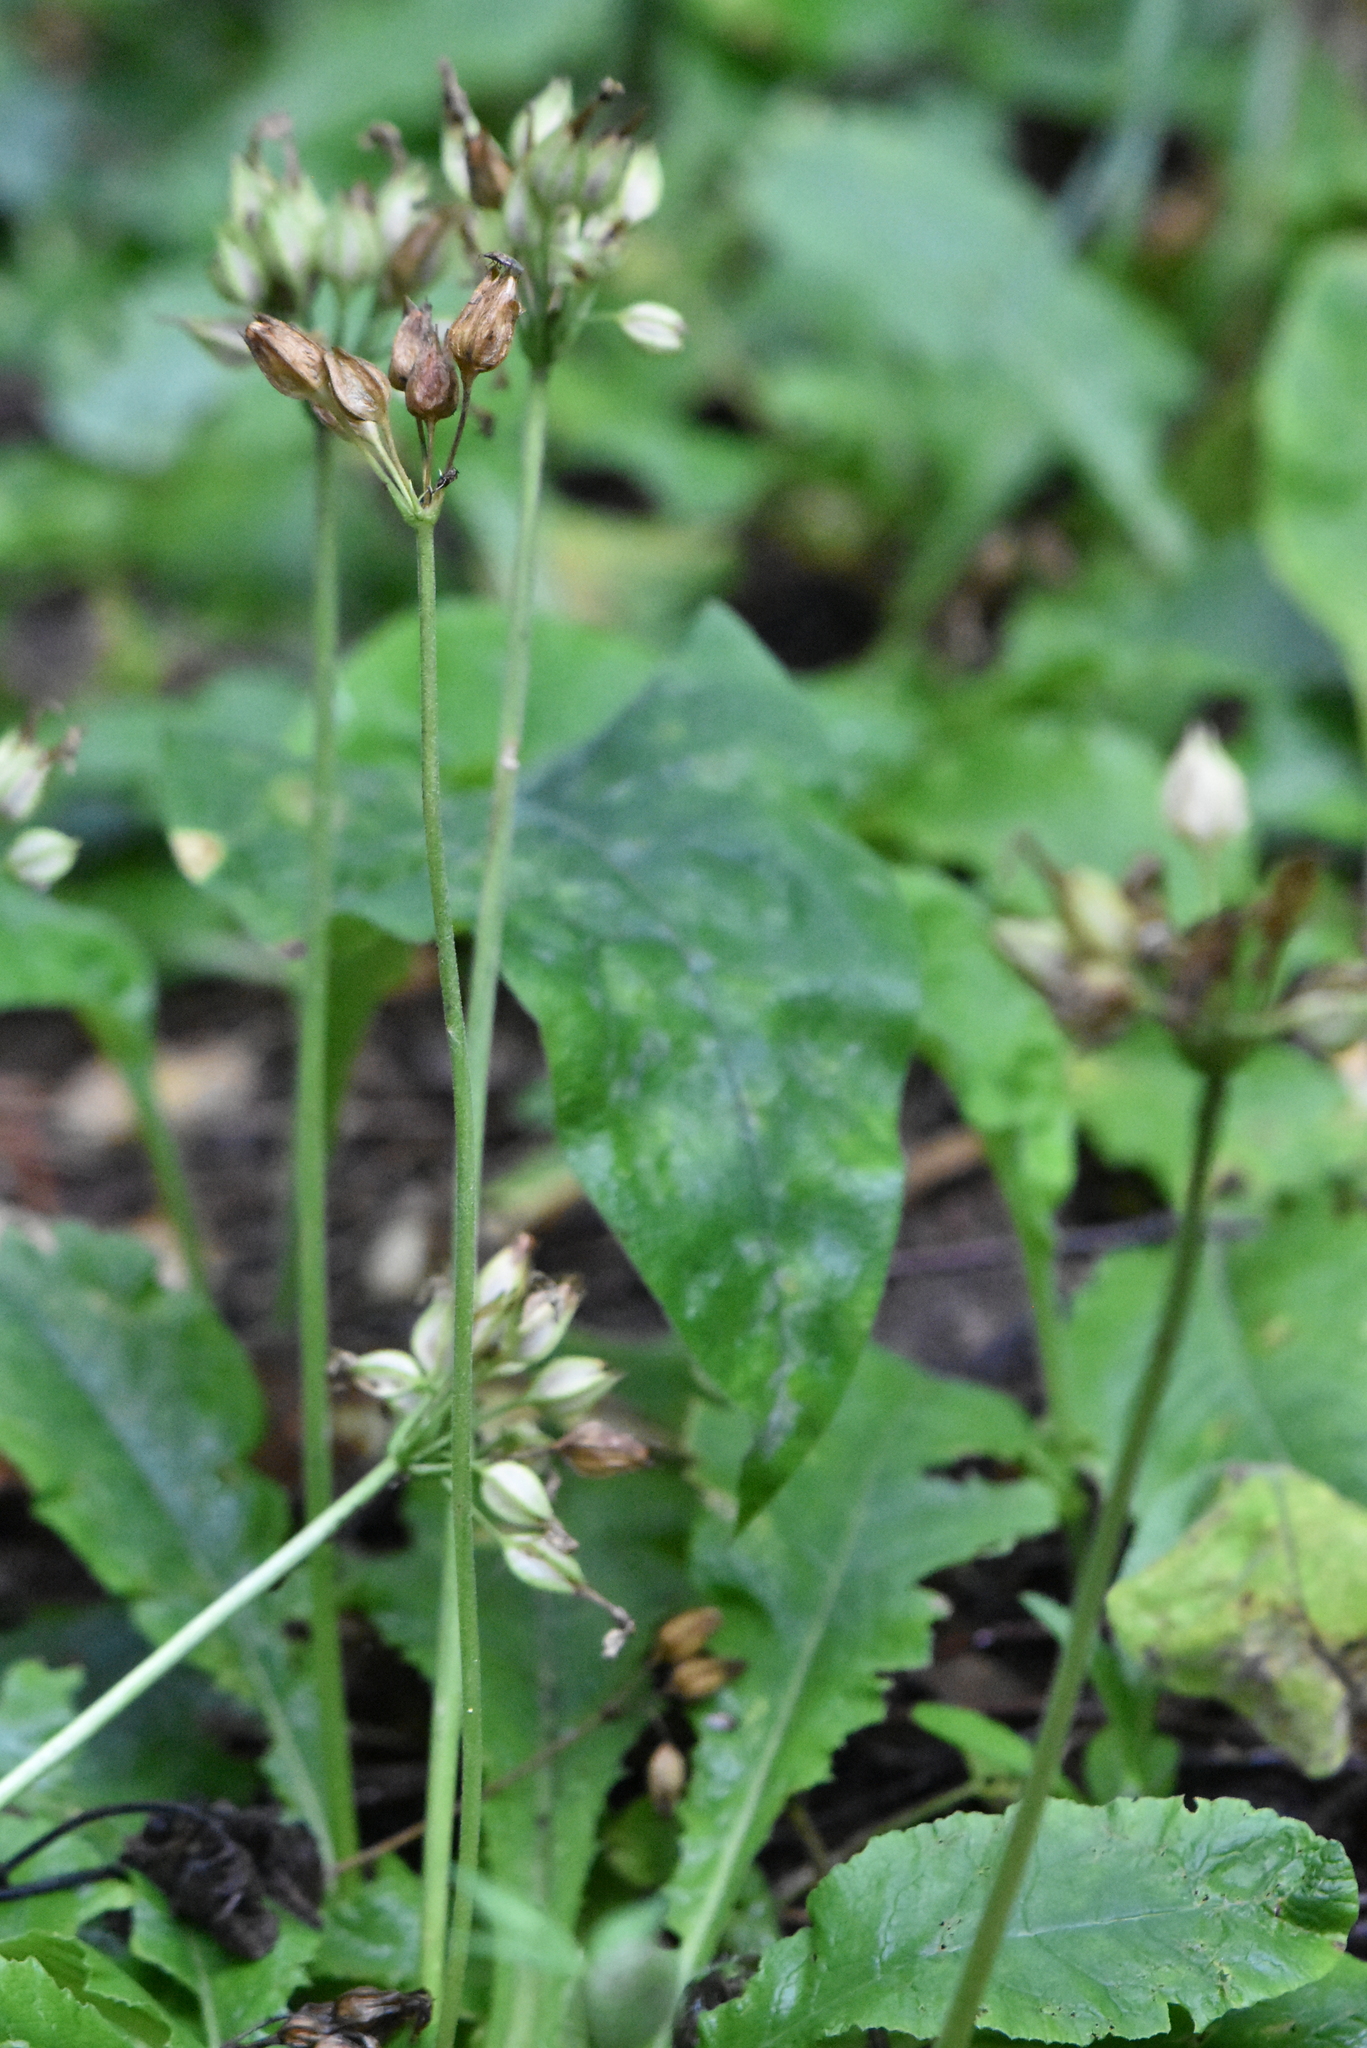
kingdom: Plantae
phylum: Tracheophyta
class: Magnoliopsida
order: Ericales
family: Primulaceae
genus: Primula
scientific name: Primula elatior
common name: Oxlip
